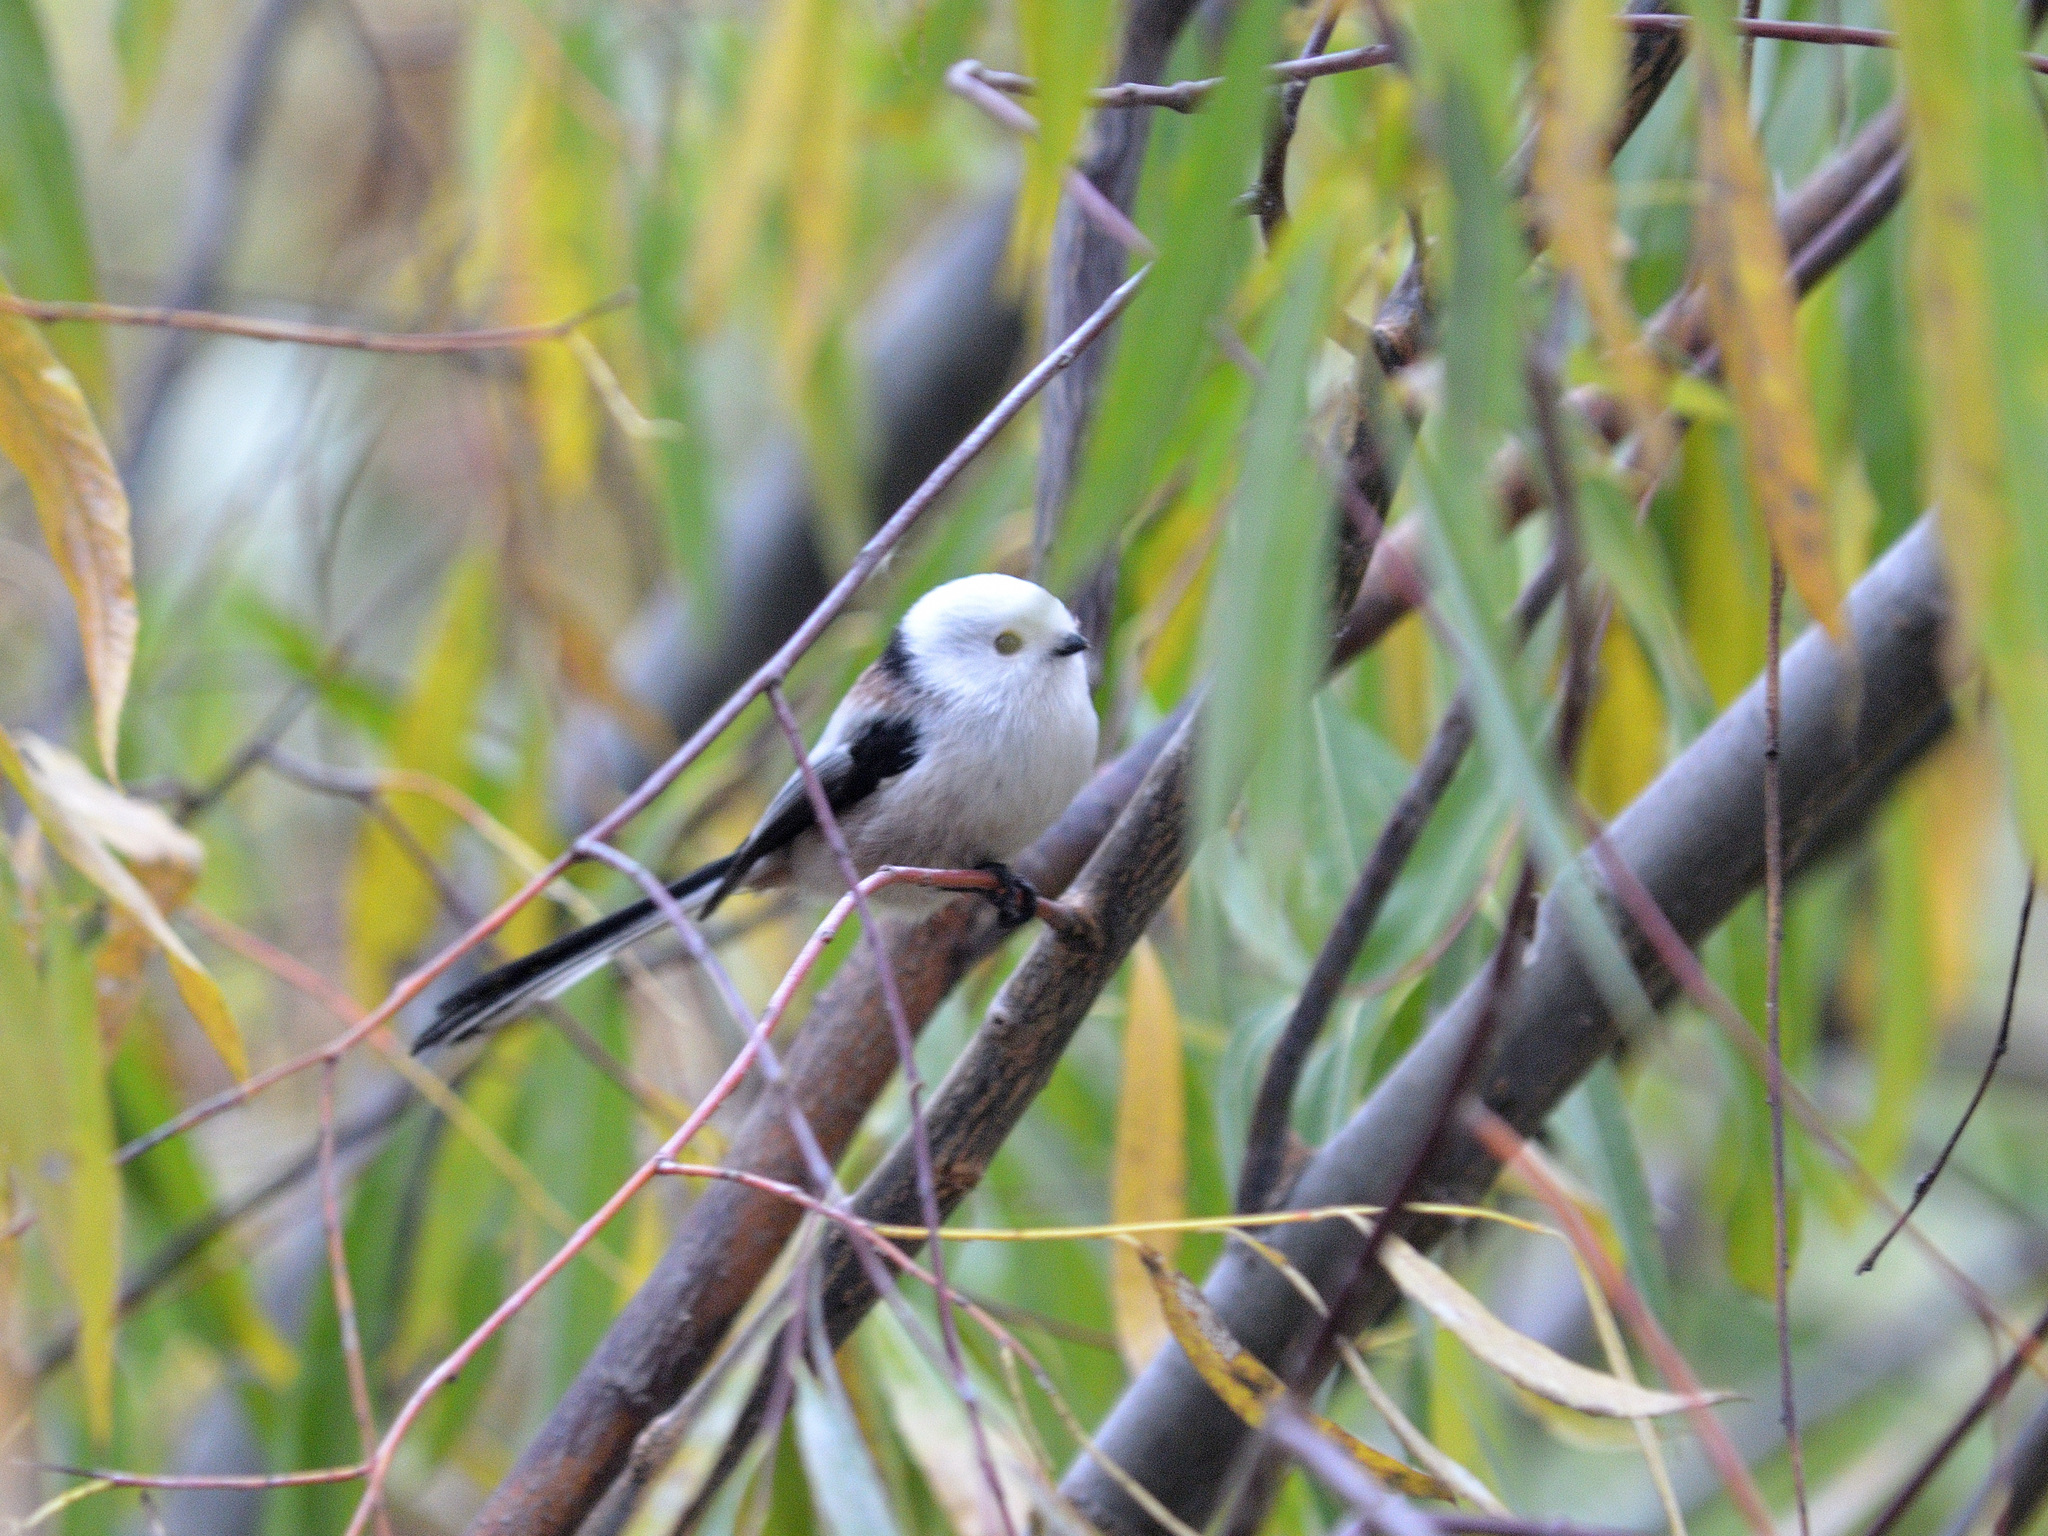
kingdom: Animalia
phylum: Chordata
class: Aves
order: Passeriformes
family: Aegithalidae
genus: Aegithalos
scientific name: Aegithalos caudatus
